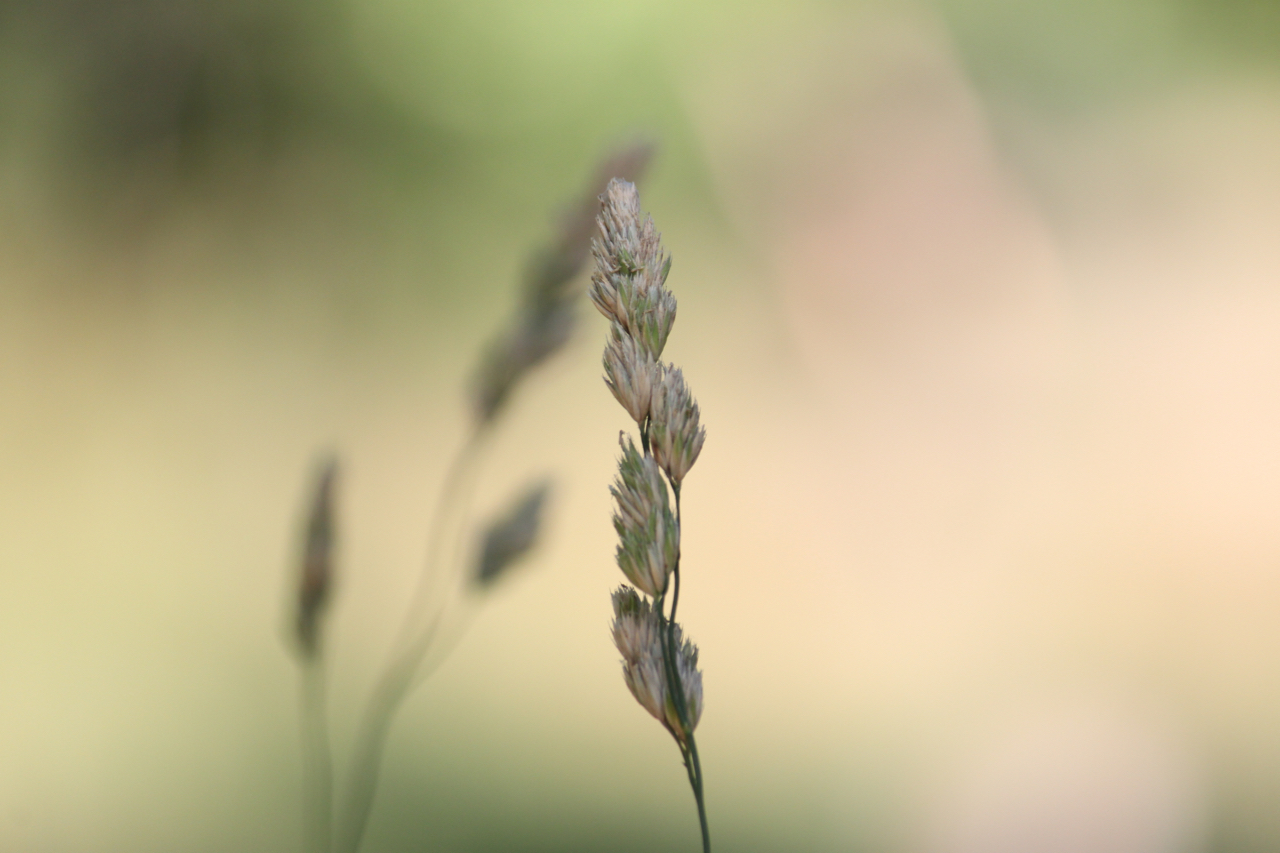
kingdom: Plantae
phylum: Tracheophyta
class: Liliopsida
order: Poales
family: Poaceae
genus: Dactylis
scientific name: Dactylis glomerata
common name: Orchardgrass
